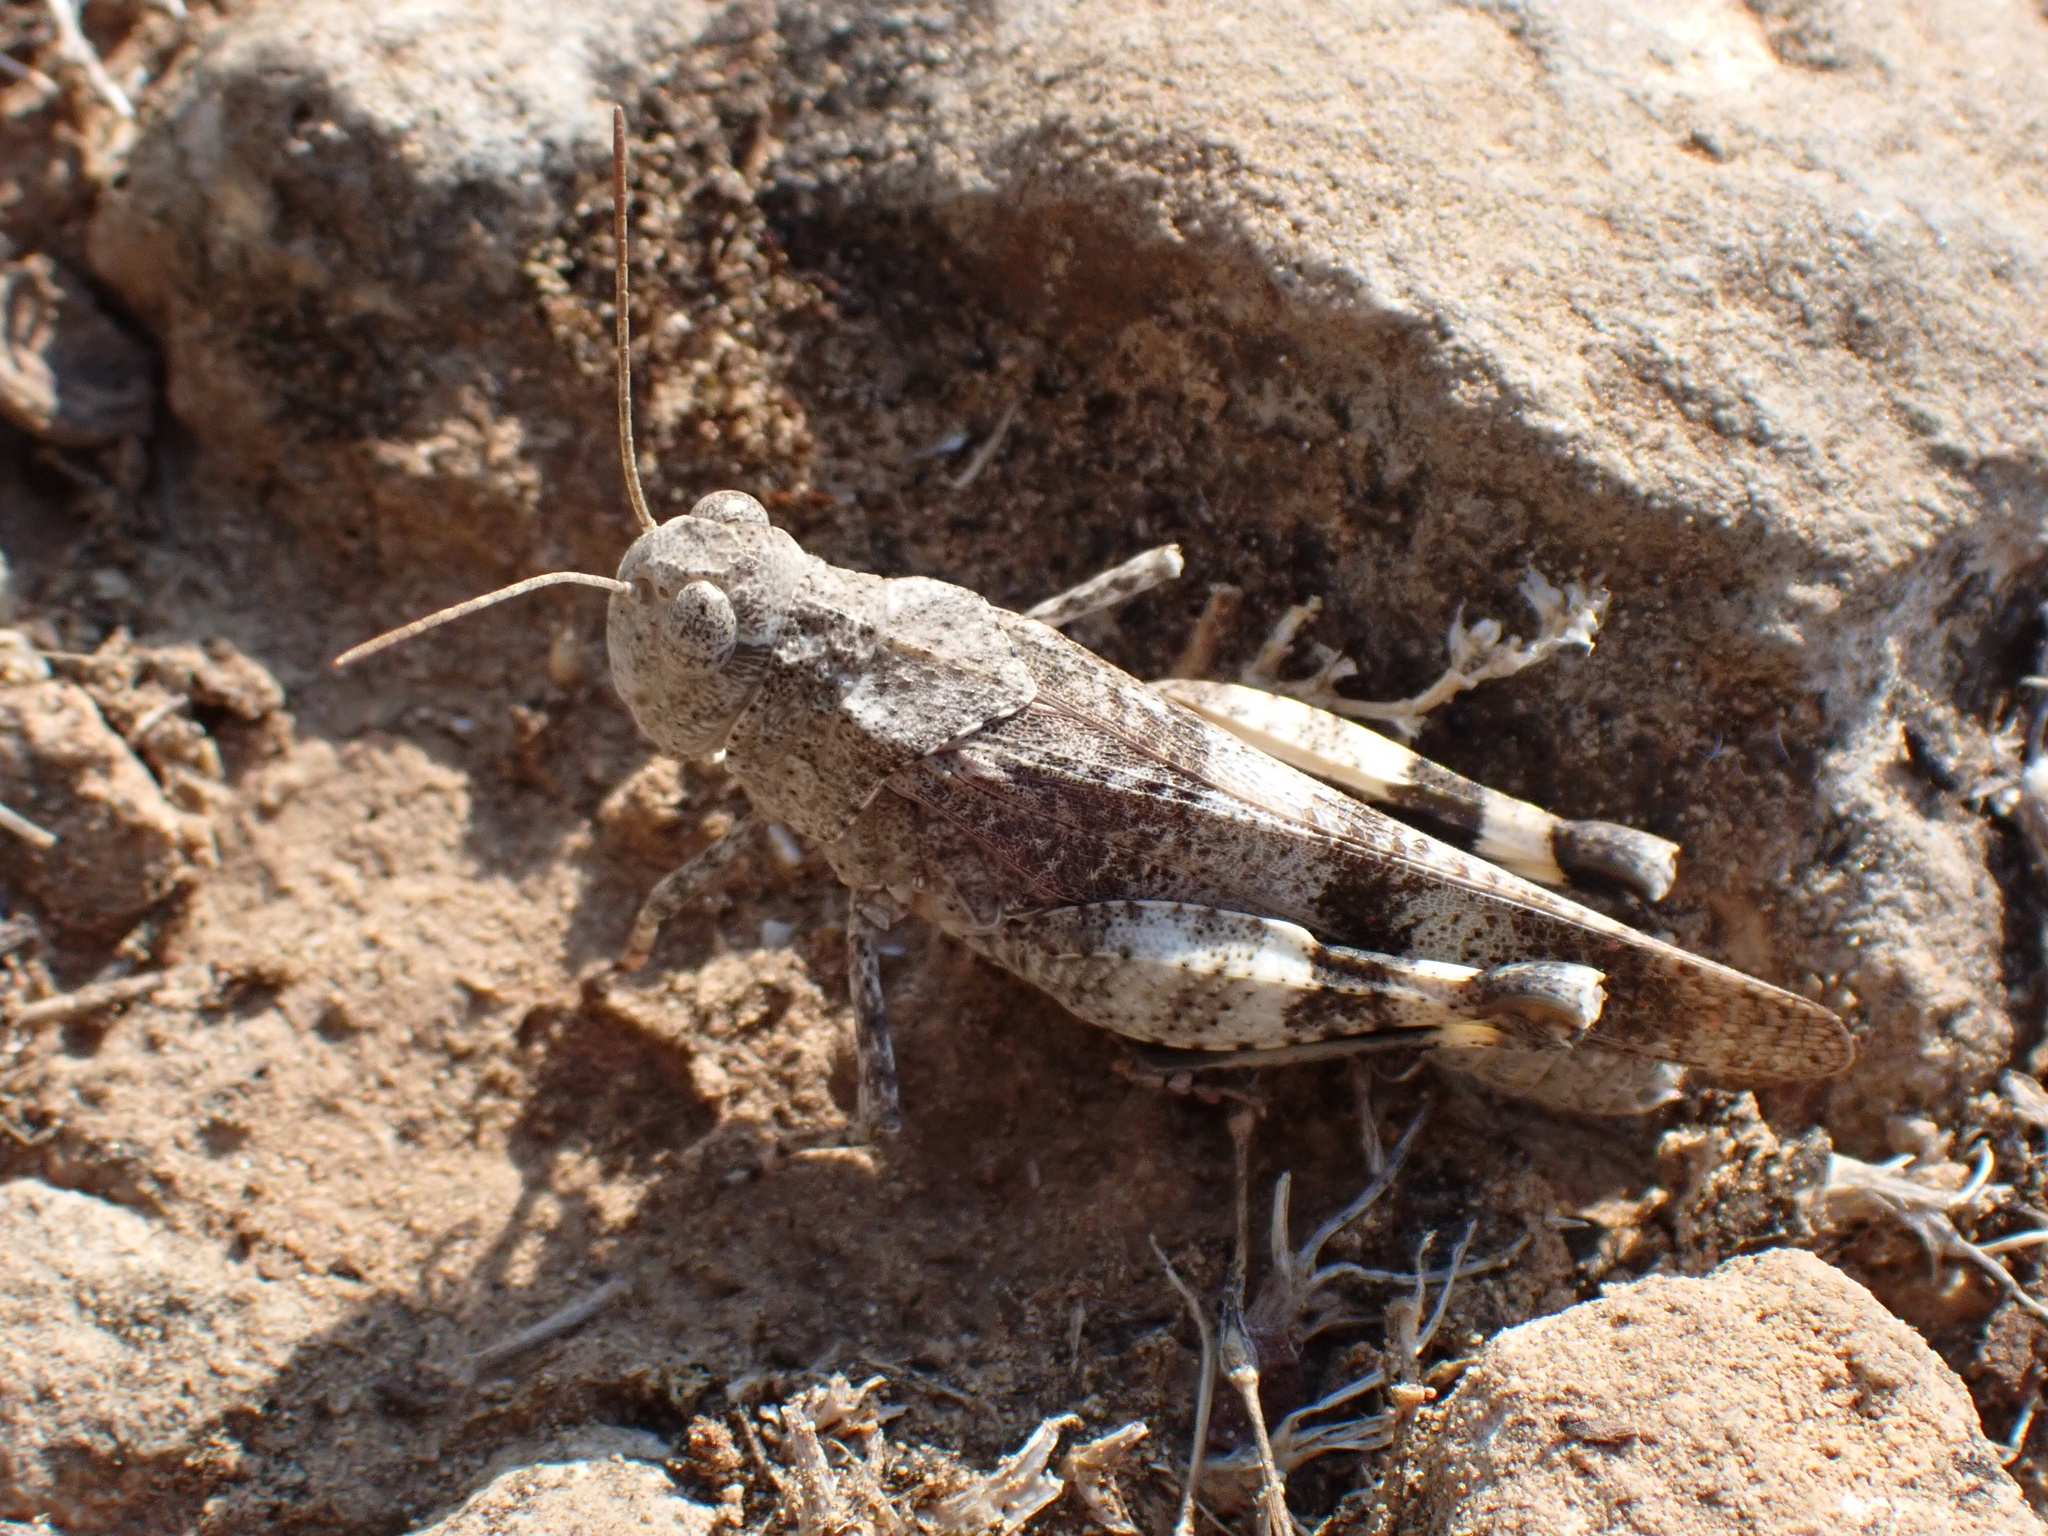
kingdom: Animalia
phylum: Arthropoda
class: Insecta
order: Orthoptera
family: Acrididae
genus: Oedipoda
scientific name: Oedipoda germanica
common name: Red band-winged grasshopper
